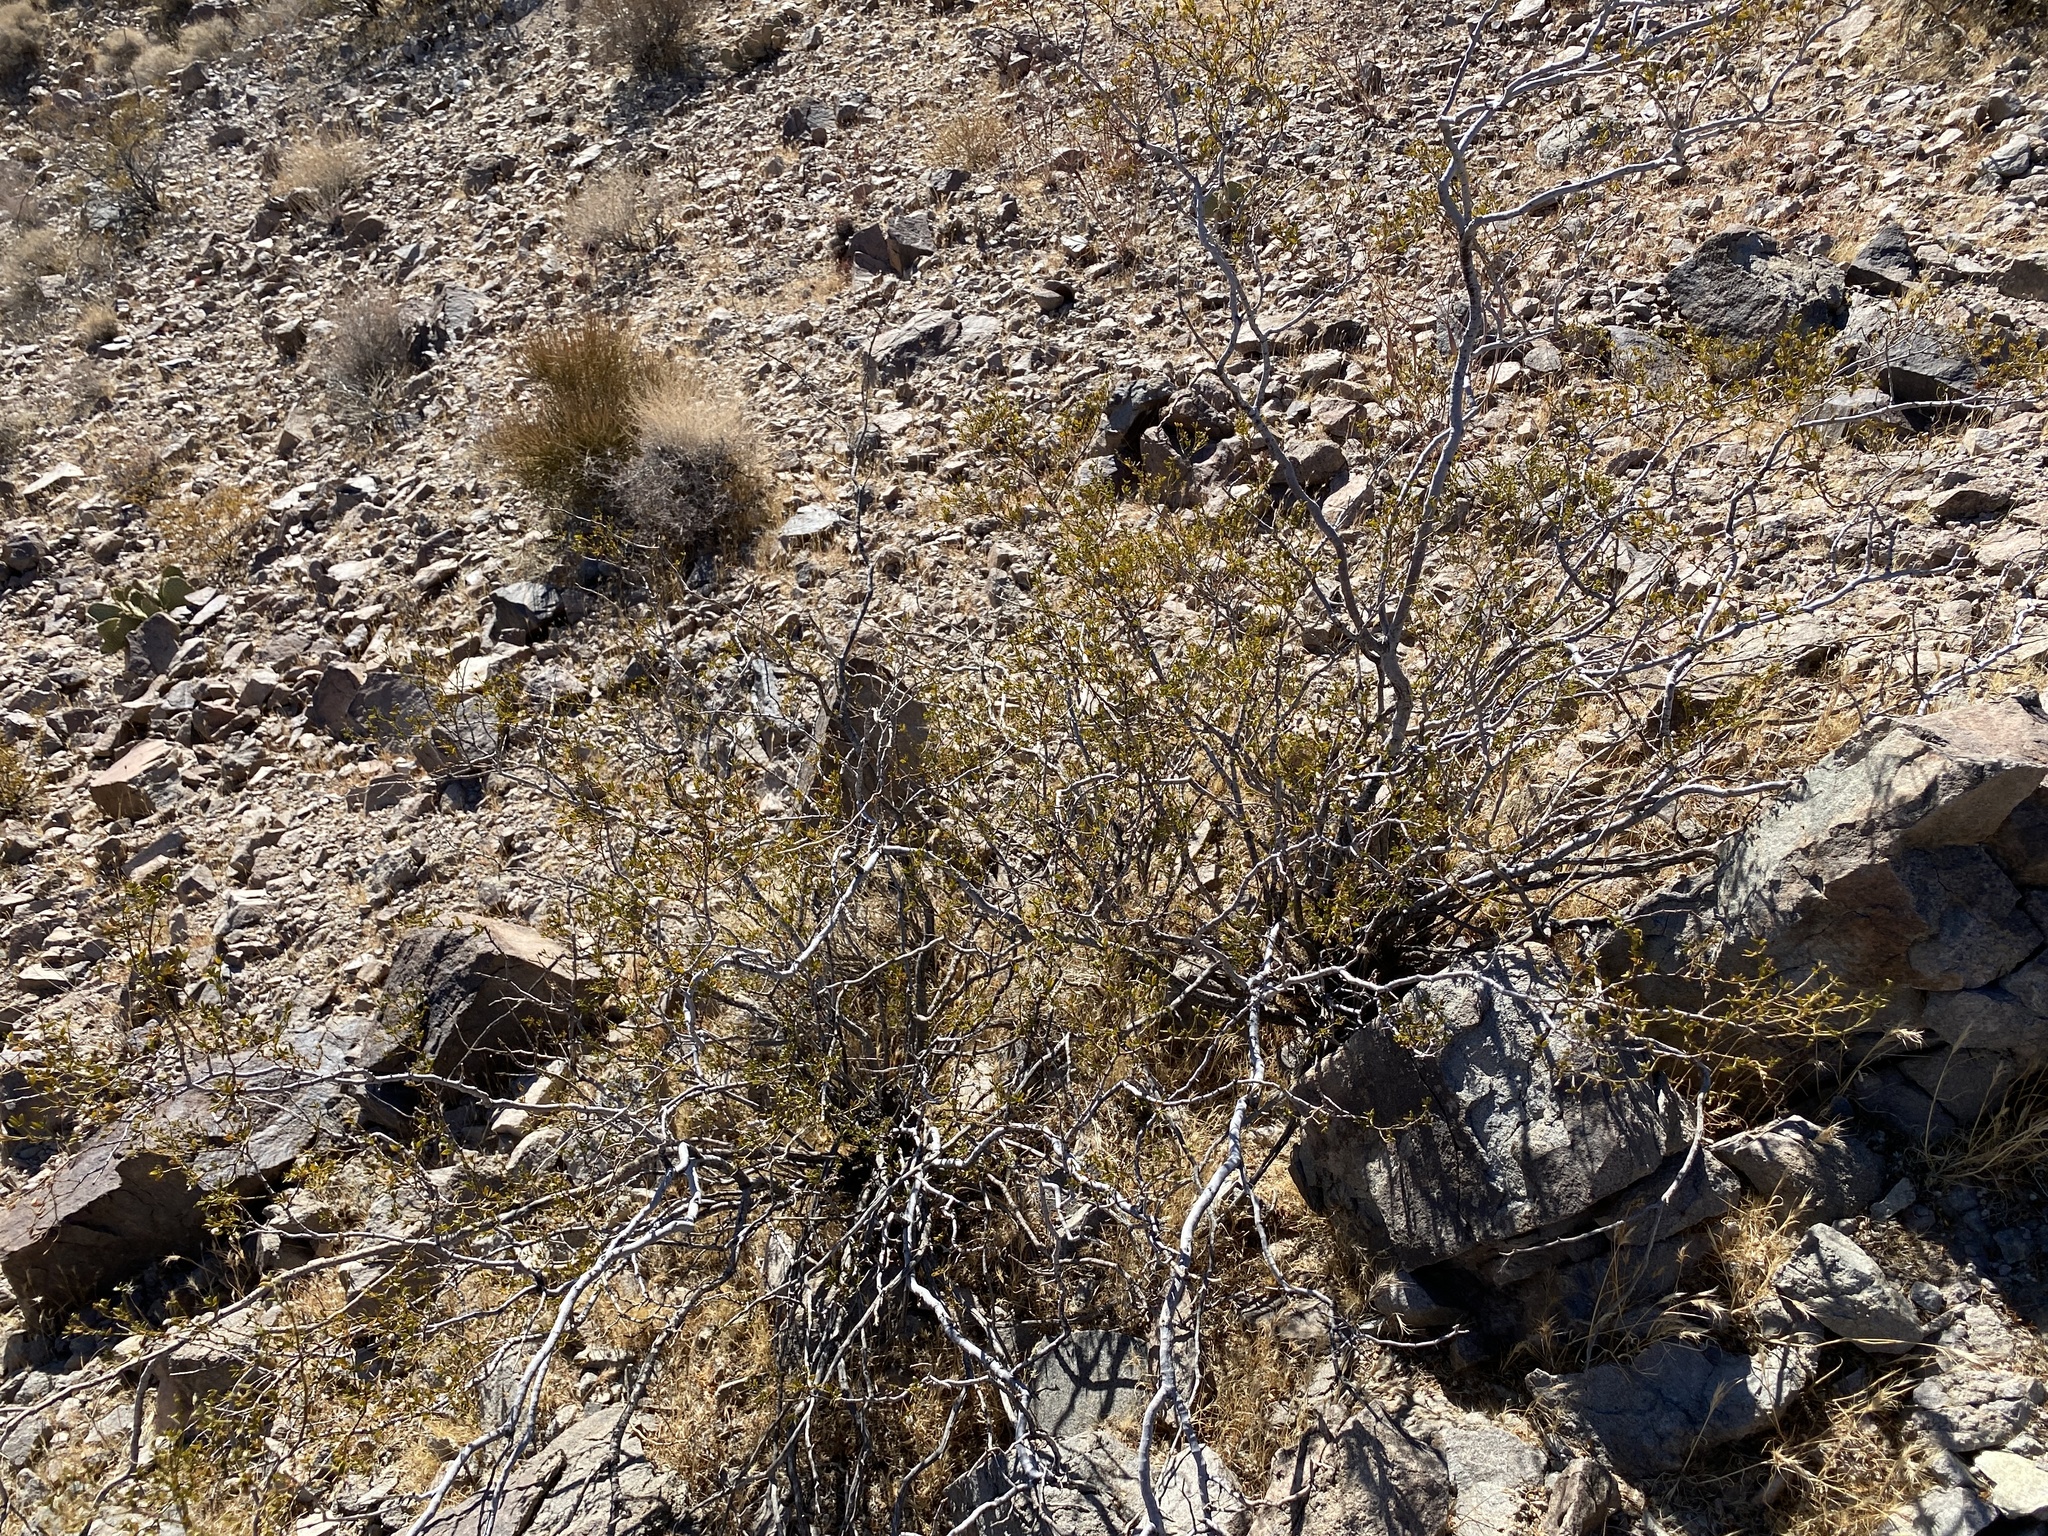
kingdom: Plantae
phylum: Tracheophyta
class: Magnoliopsida
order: Zygophyllales
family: Zygophyllaceae
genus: Larrea
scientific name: Larrea tridentata
